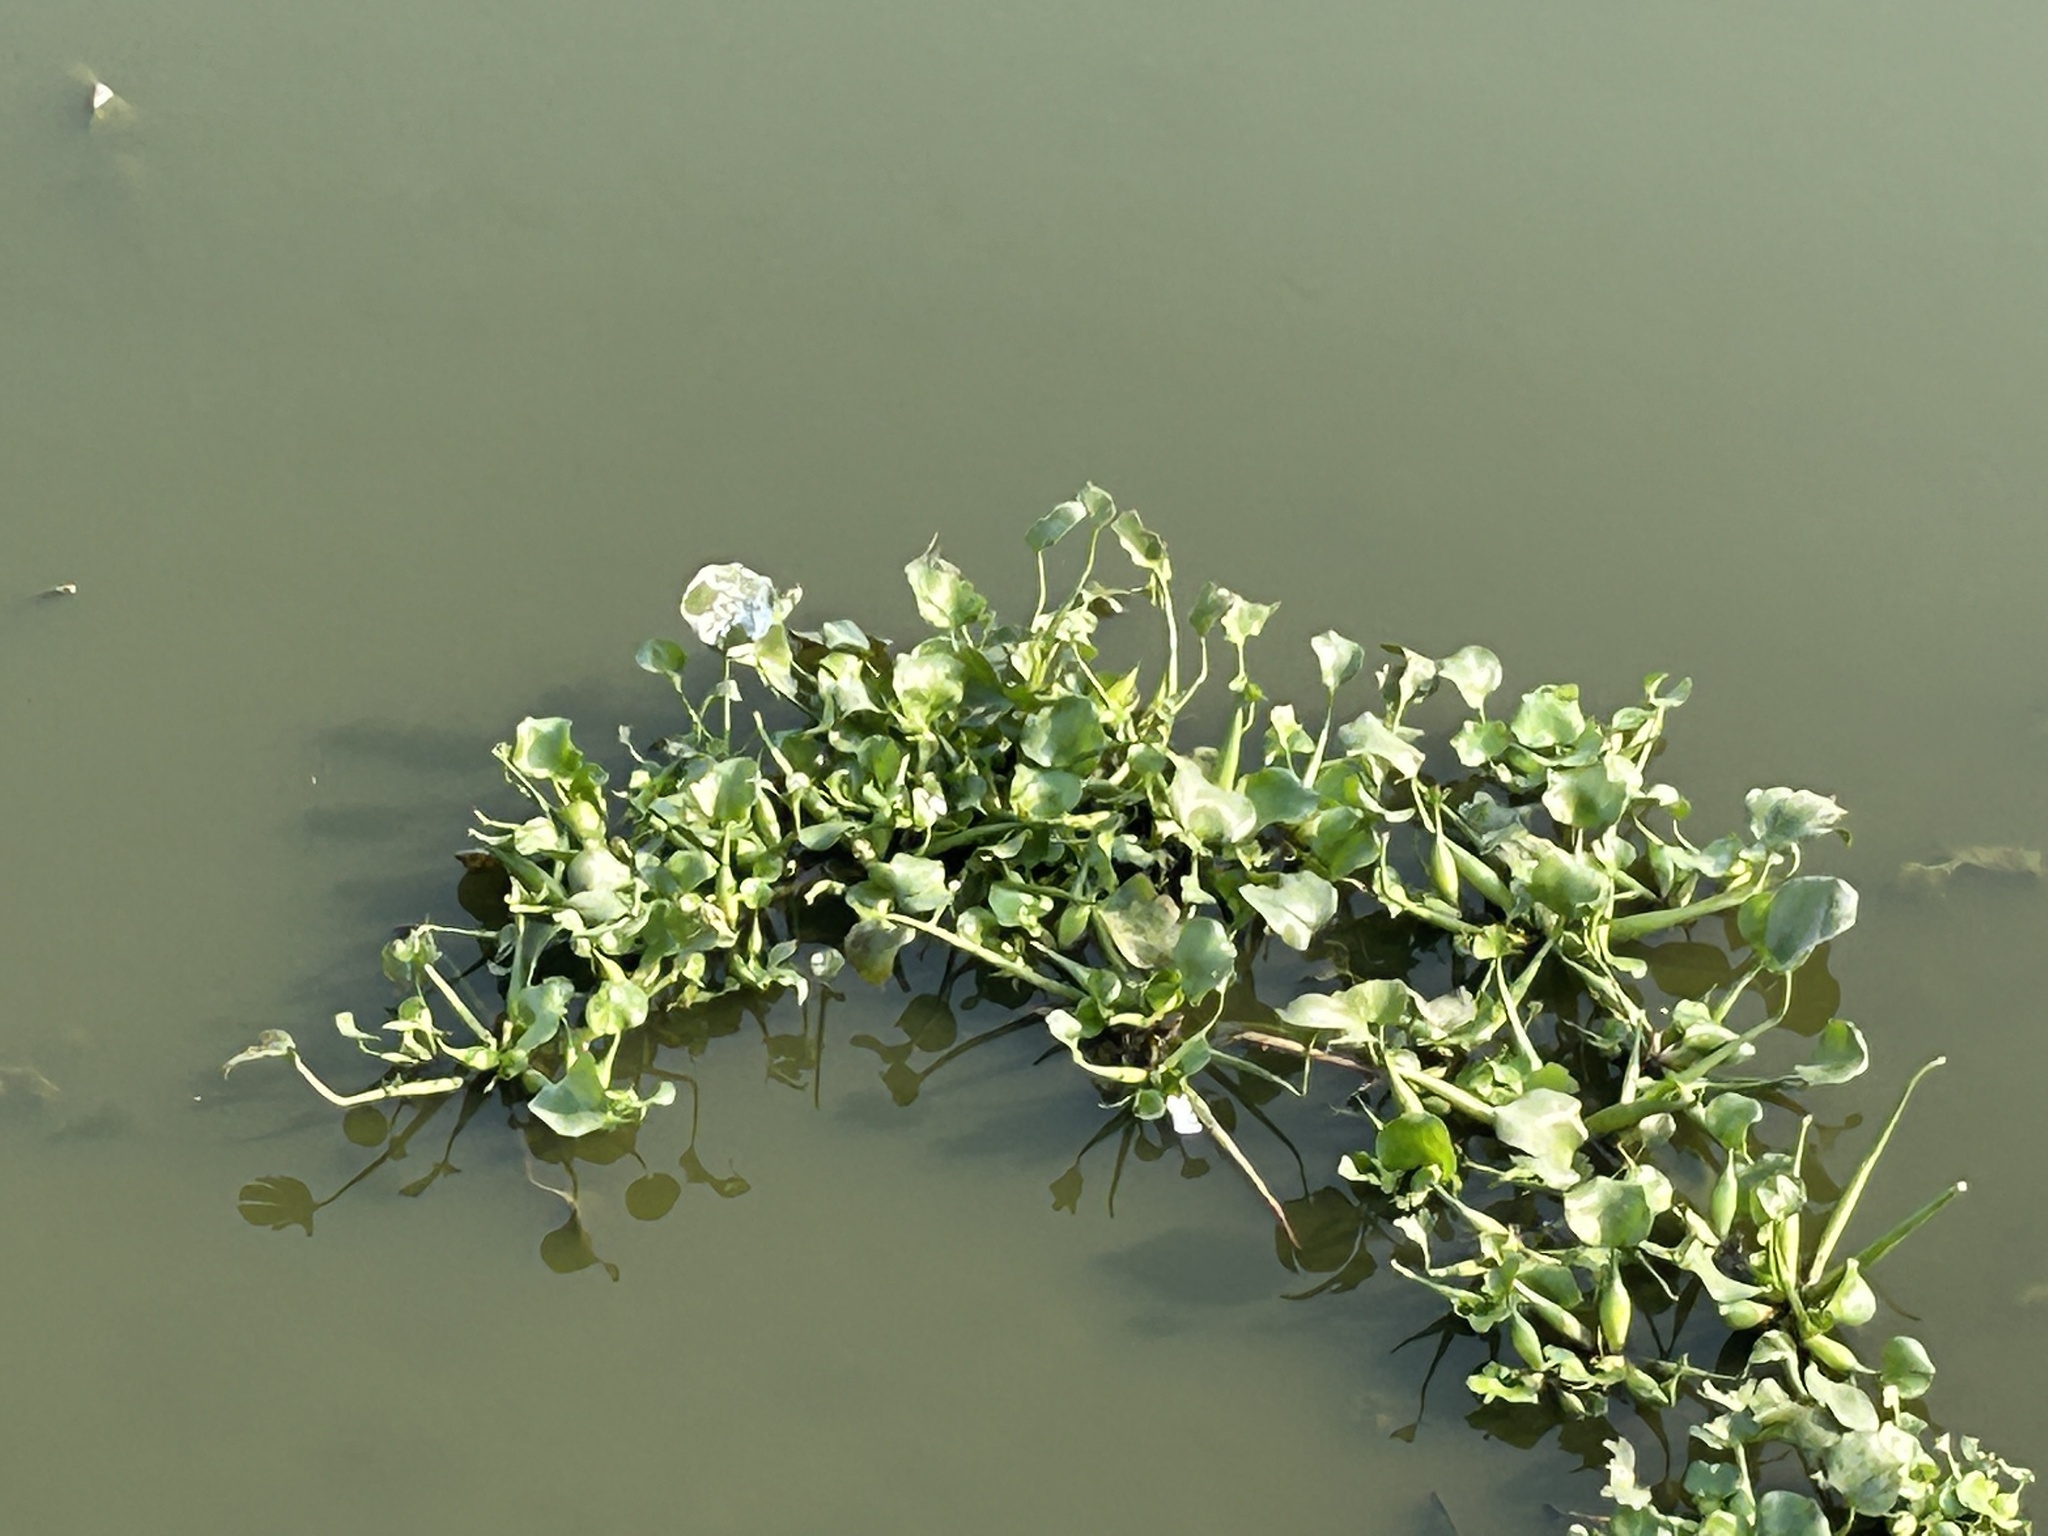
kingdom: Plantae
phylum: Tracheophyta
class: Liliopsida
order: Commelinales
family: Pontederiaceae
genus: Pontederia
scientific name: Pontederia crassipes
